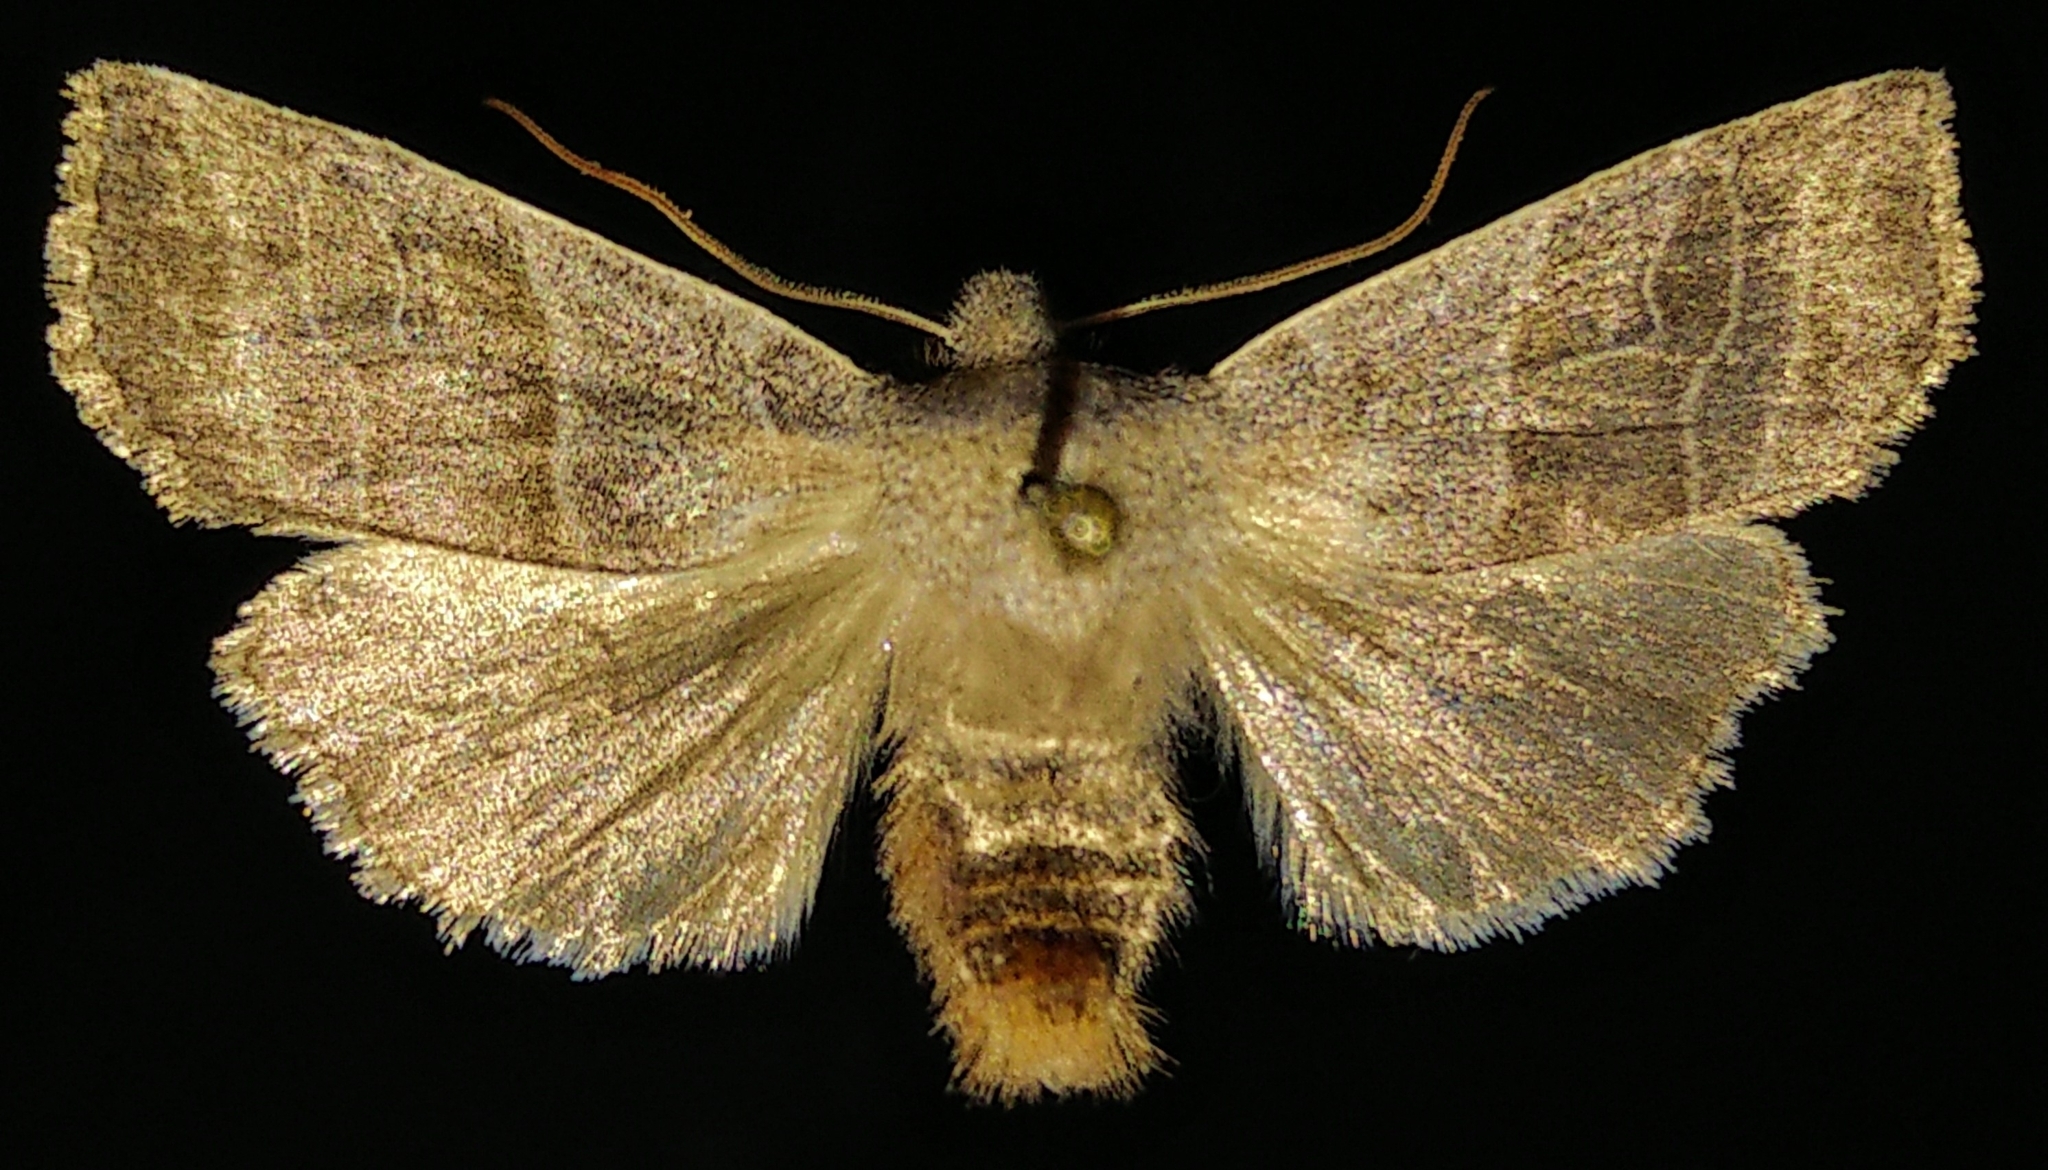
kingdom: Animalia
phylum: Arthropoda
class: Insecta
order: Lepidoptera
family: Noctuidae
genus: Eupsilia
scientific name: Eupsilia devia
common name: Lost sallow
